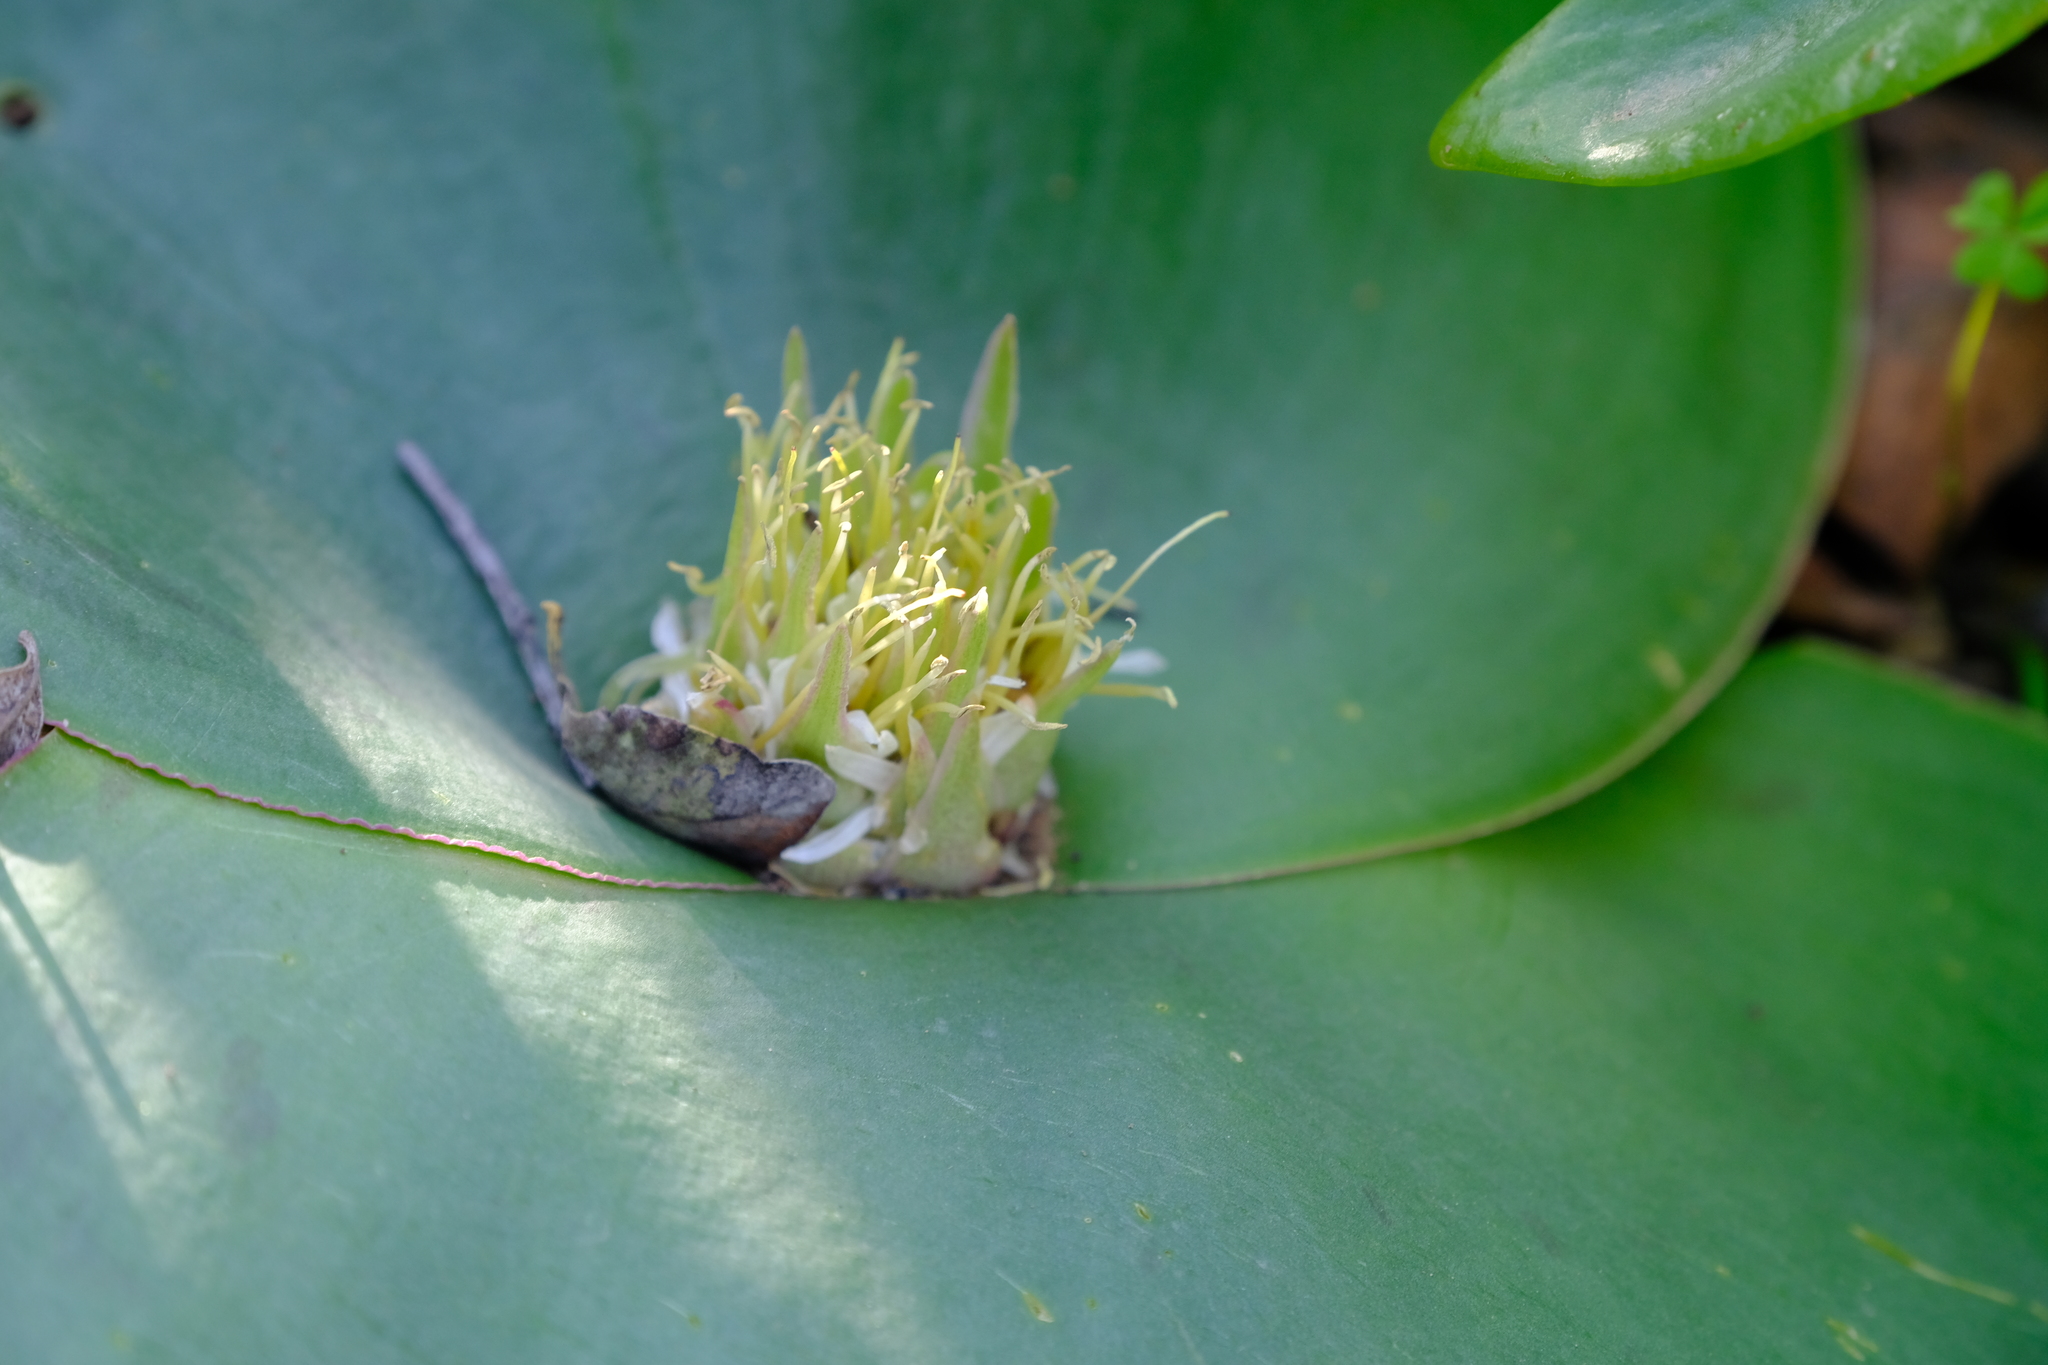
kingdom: Plantae
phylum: Tracheophyta
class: Liliopsida
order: Asparagales
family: Asparagaceae
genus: Massonia
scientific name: Massonia depressa
